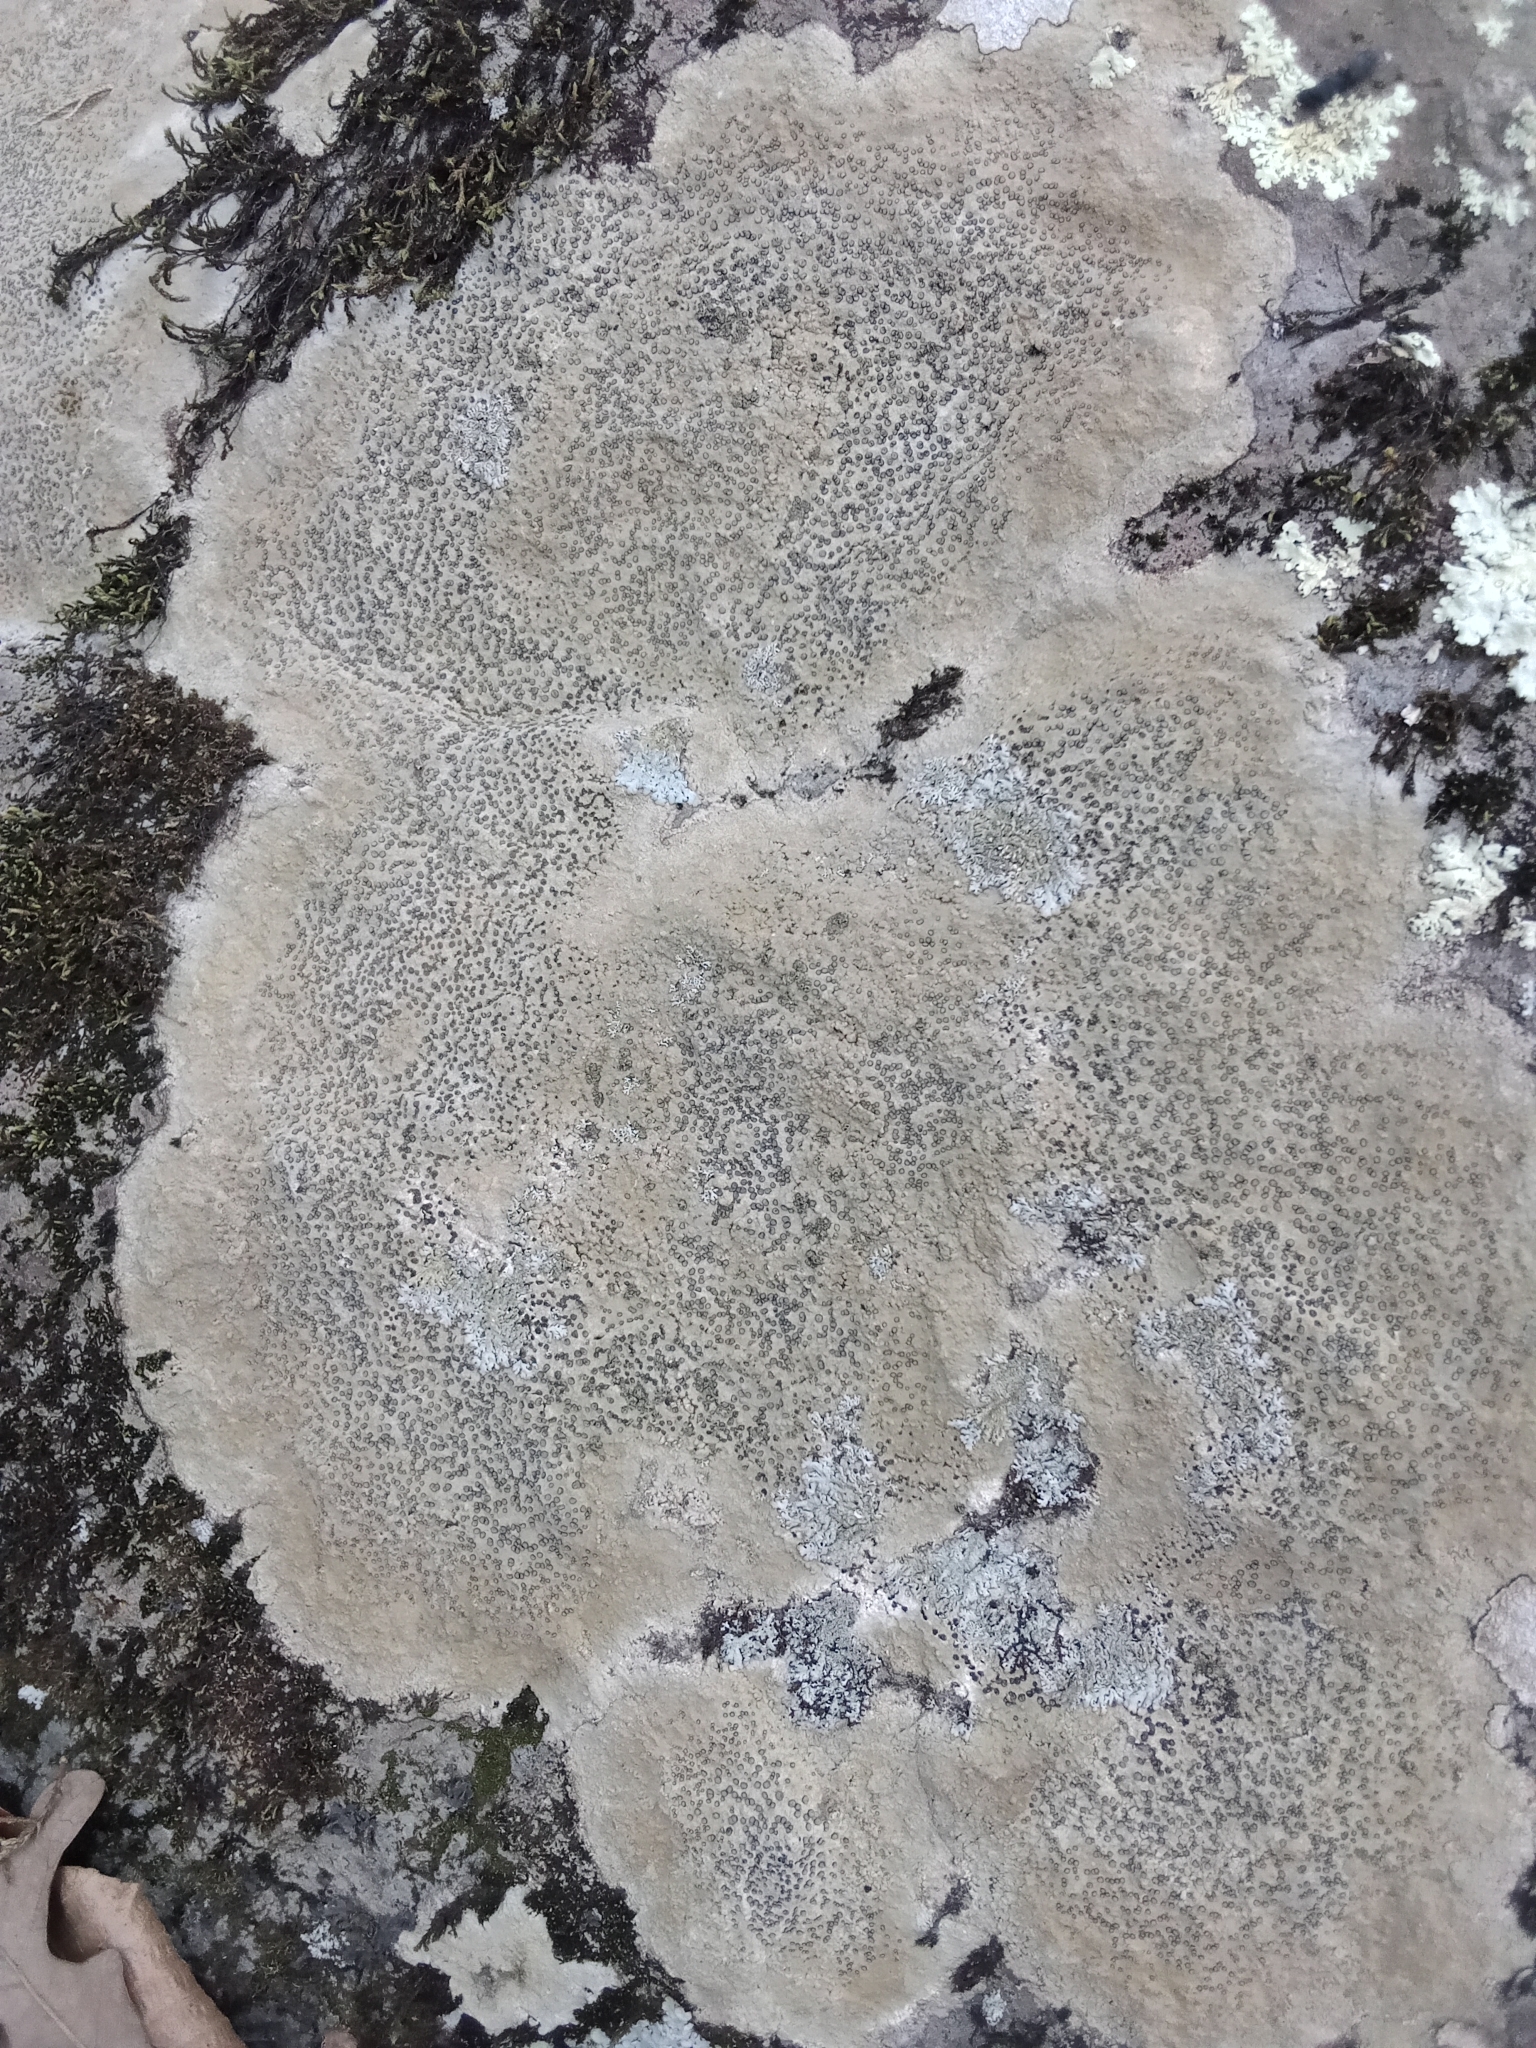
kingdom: Fungi
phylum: Ascomycota
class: Lecanoromycetes
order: Lecideales
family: Lecideaceae
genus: Porpidia
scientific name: Porpidia albocaerulescens
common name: Smokey-eyed boulder lichen
